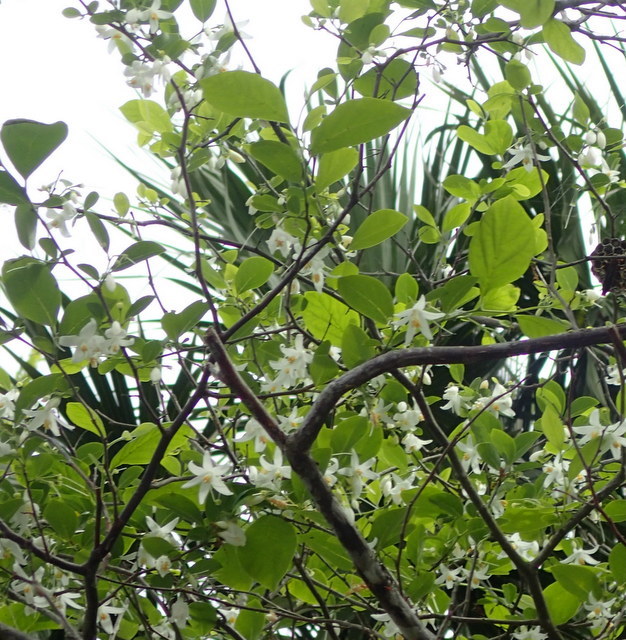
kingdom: Plantae
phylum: Tracheophyta
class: Magnoliopsida
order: Ericales
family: Styracaceae
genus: Styrax
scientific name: Styrax americanus
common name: American snowbell
